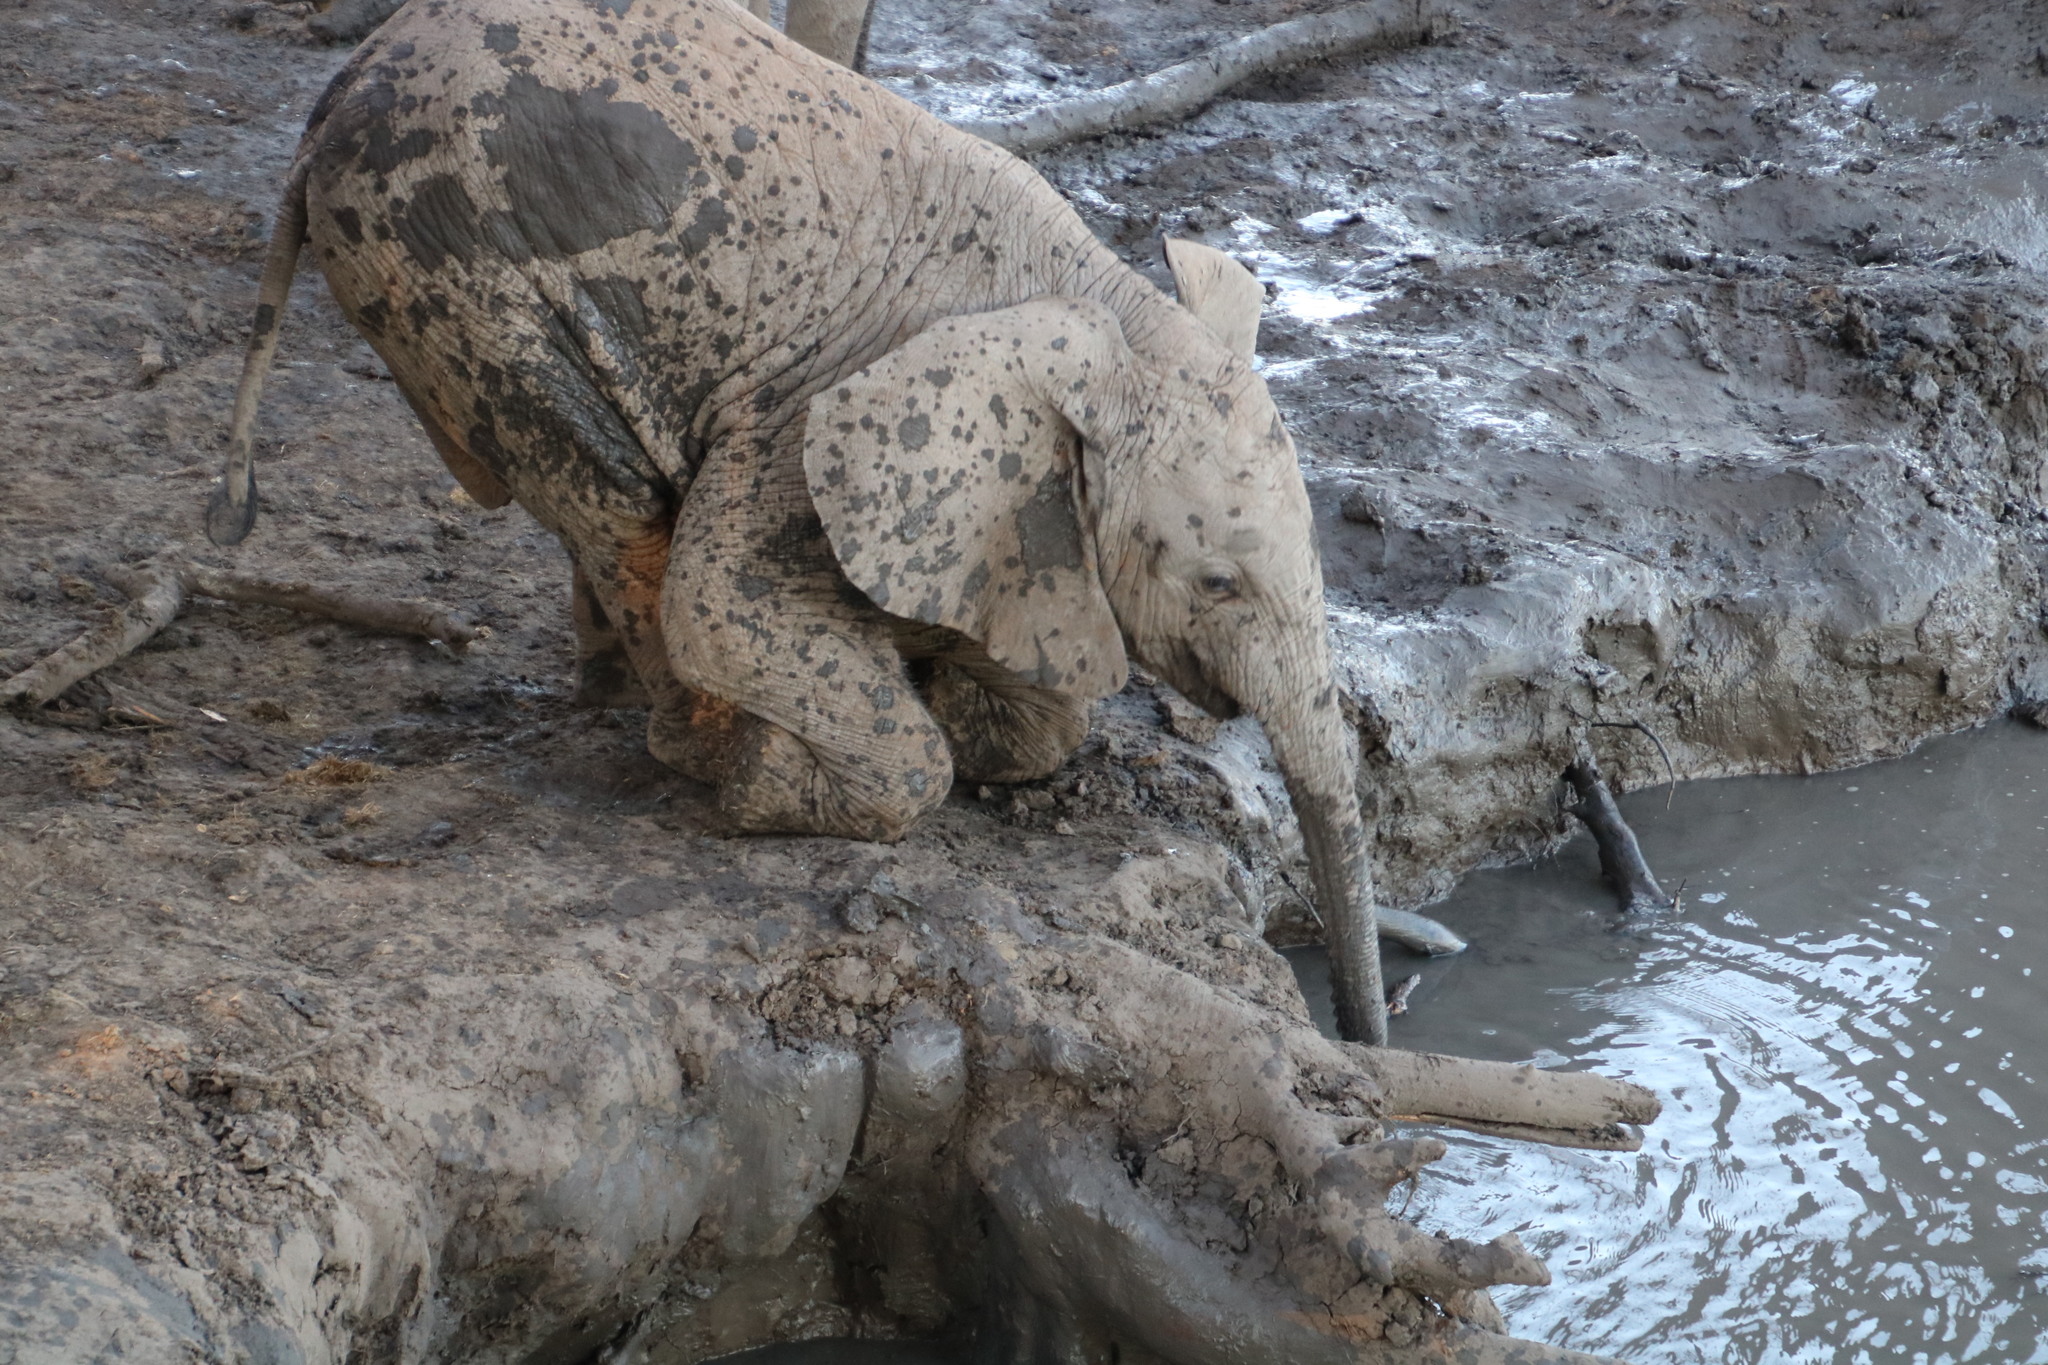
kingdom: Animalia
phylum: Chordata
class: Mammalia
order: Proboscidea
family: Elephantidae
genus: Loxodonta
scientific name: Loxodonta africana
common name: African elephant
